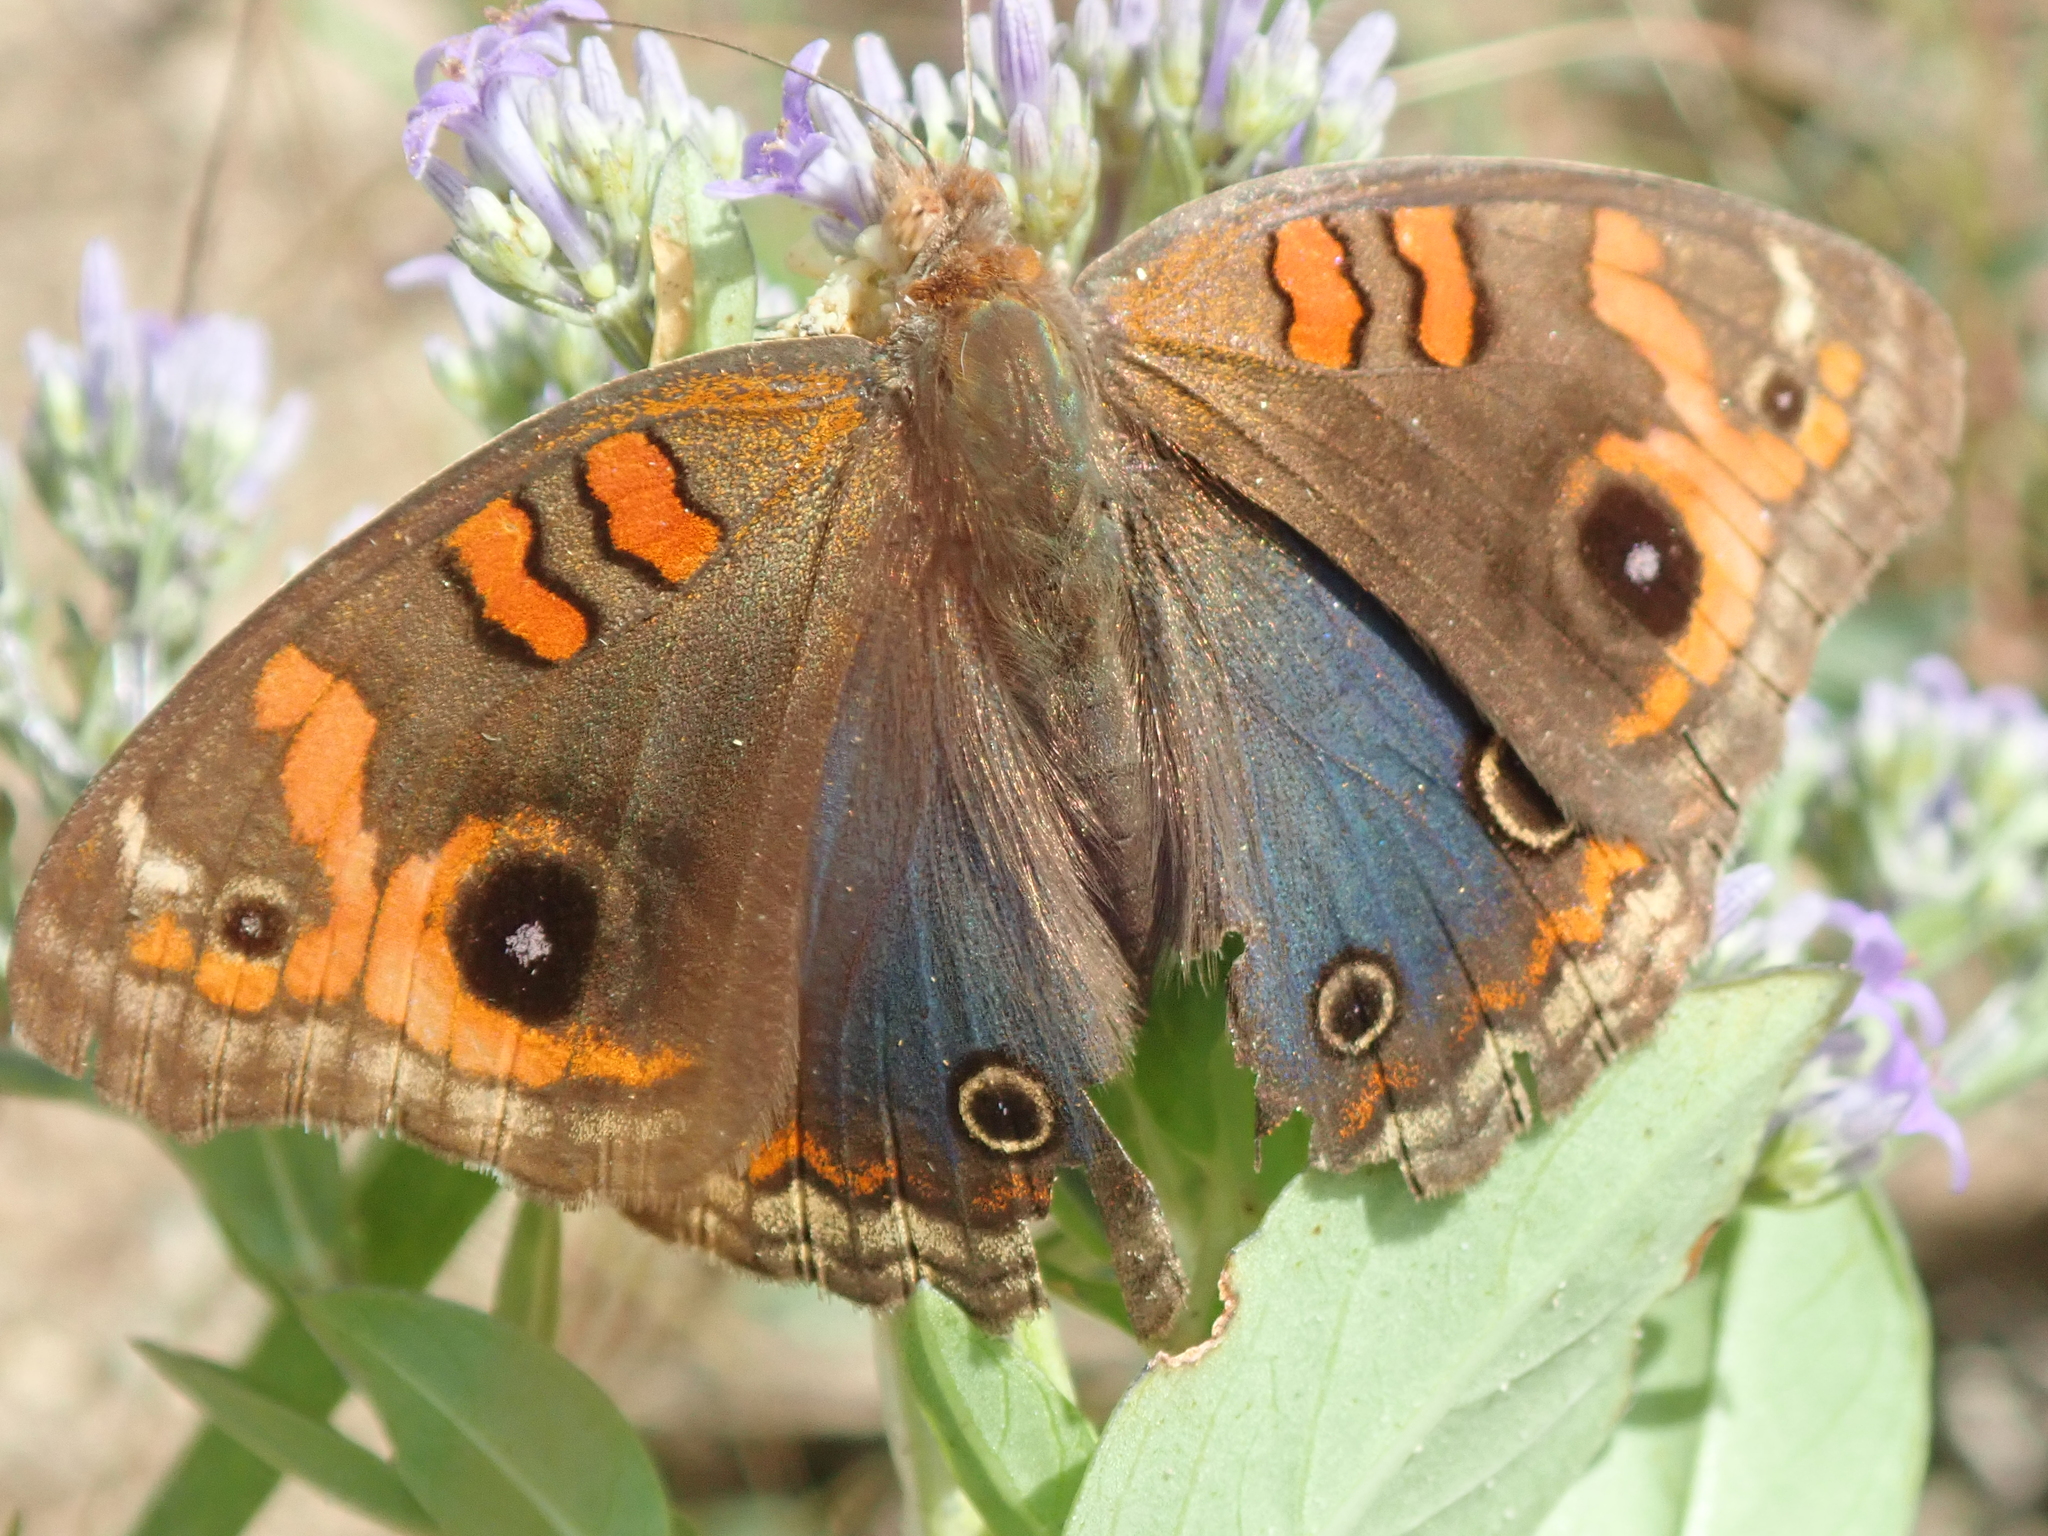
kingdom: Animalia
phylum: Arthropoda
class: Insecta
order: Lepidoptera
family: Nymphalidae
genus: Junonia
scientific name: Junonia evarete
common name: Black mangrove buckeye
